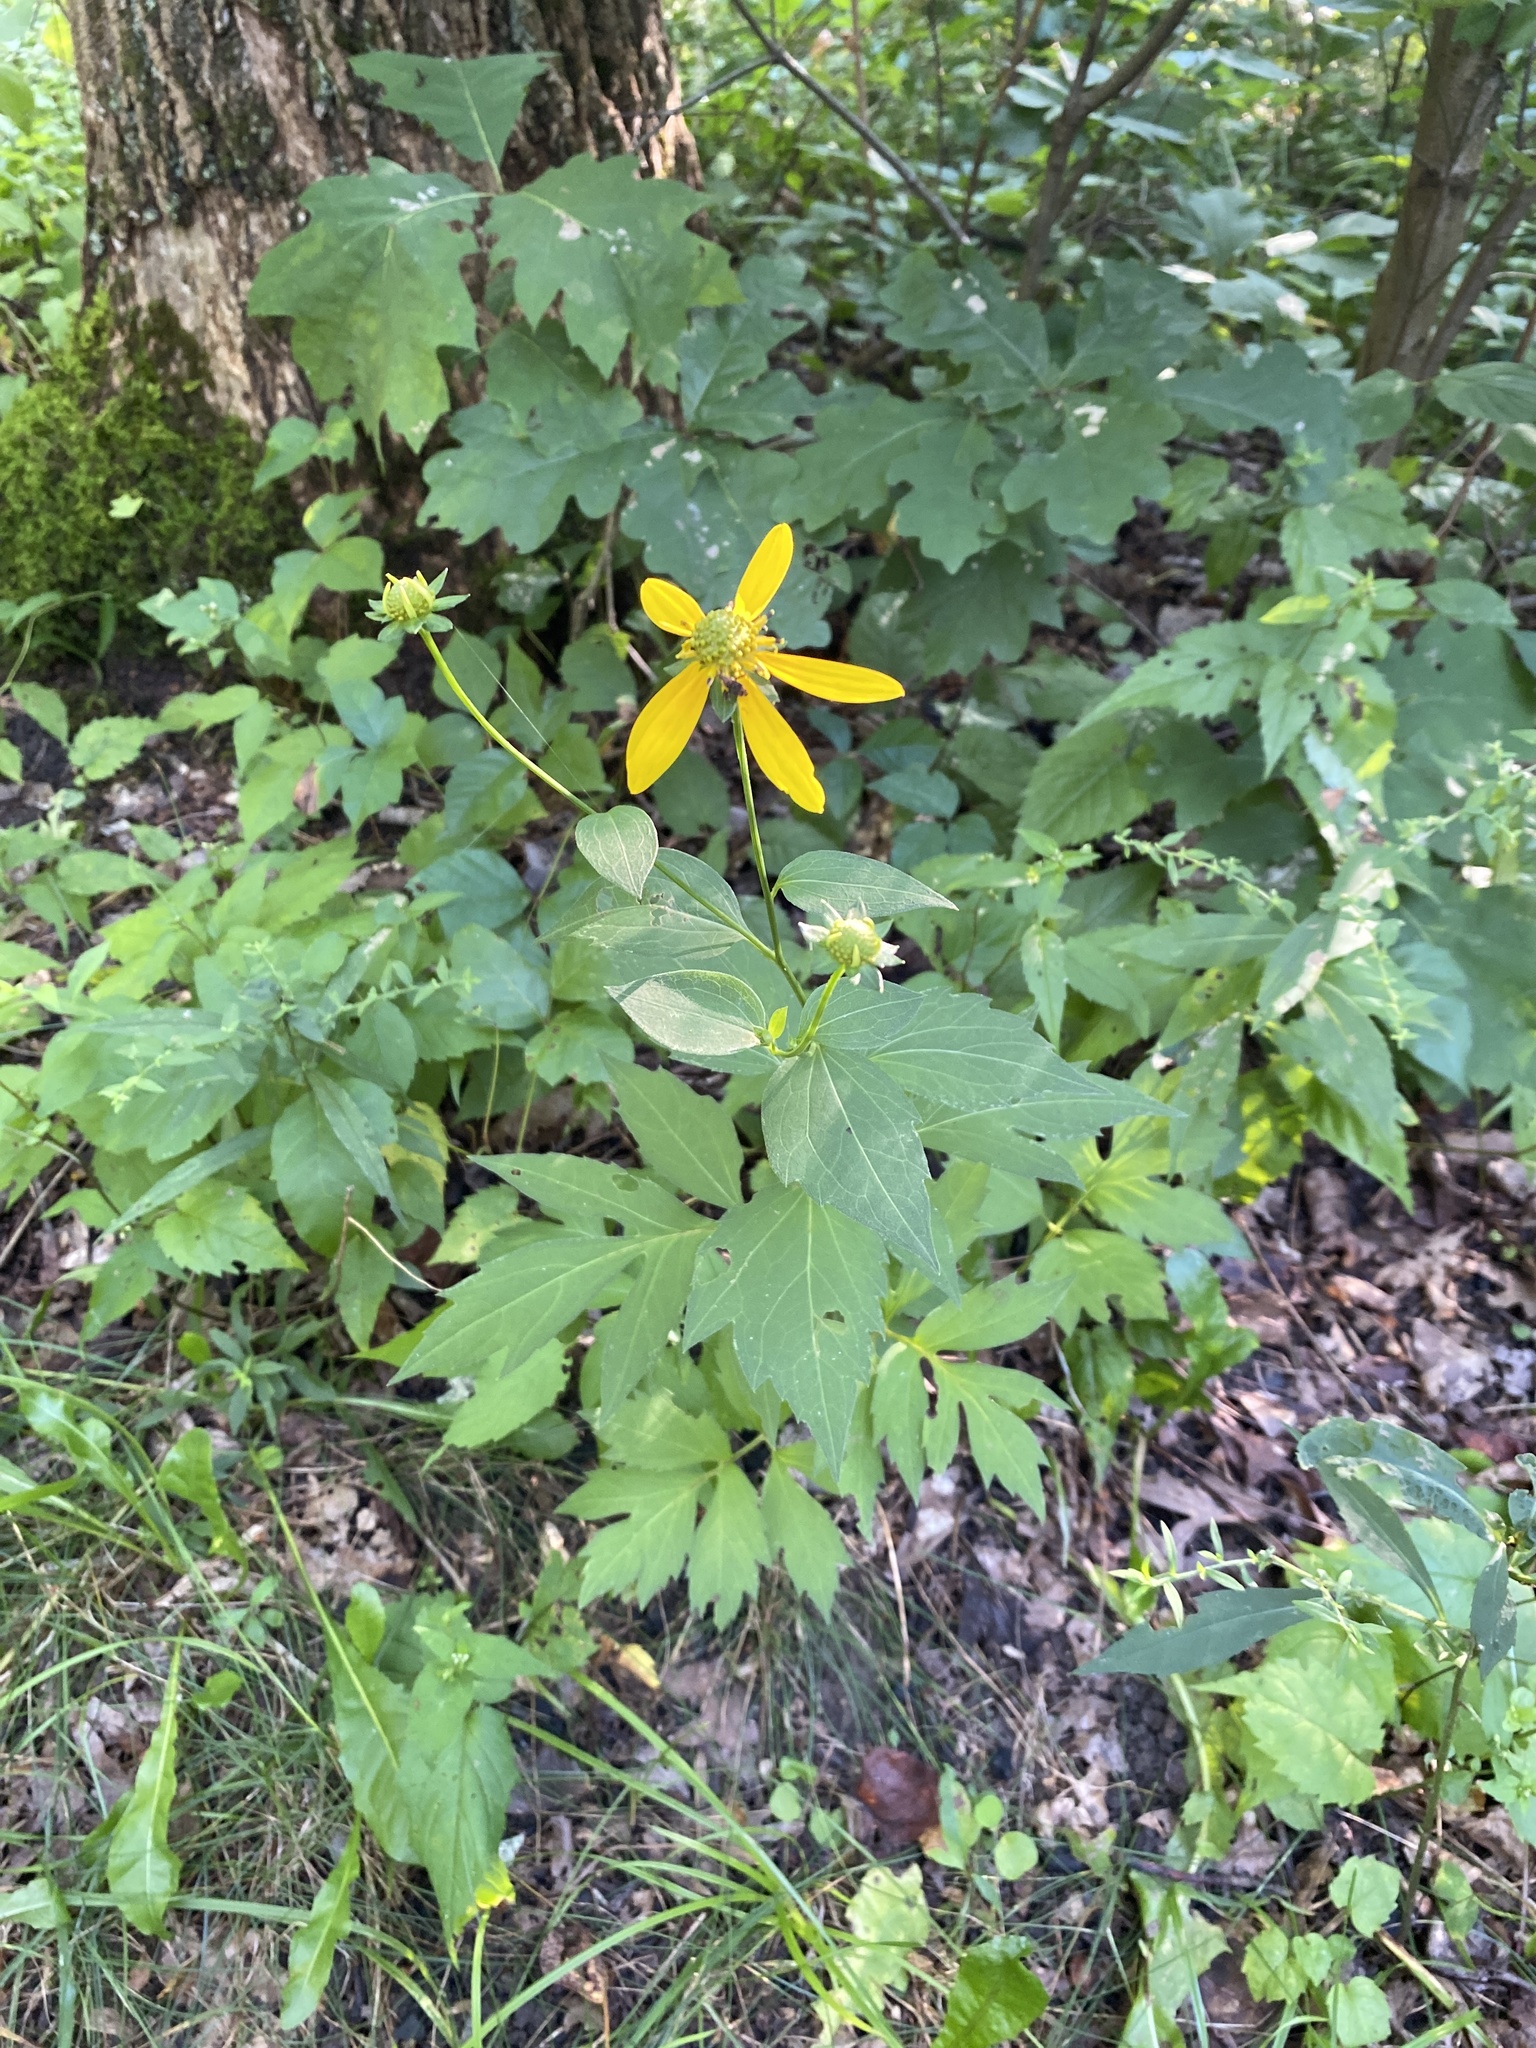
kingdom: Plantae
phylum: Tracheophyta
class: Magnoliopsida
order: Asterales
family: Asteraceae
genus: Rudbeckia
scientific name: Rudbeckia laciniata
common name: Coneflower
